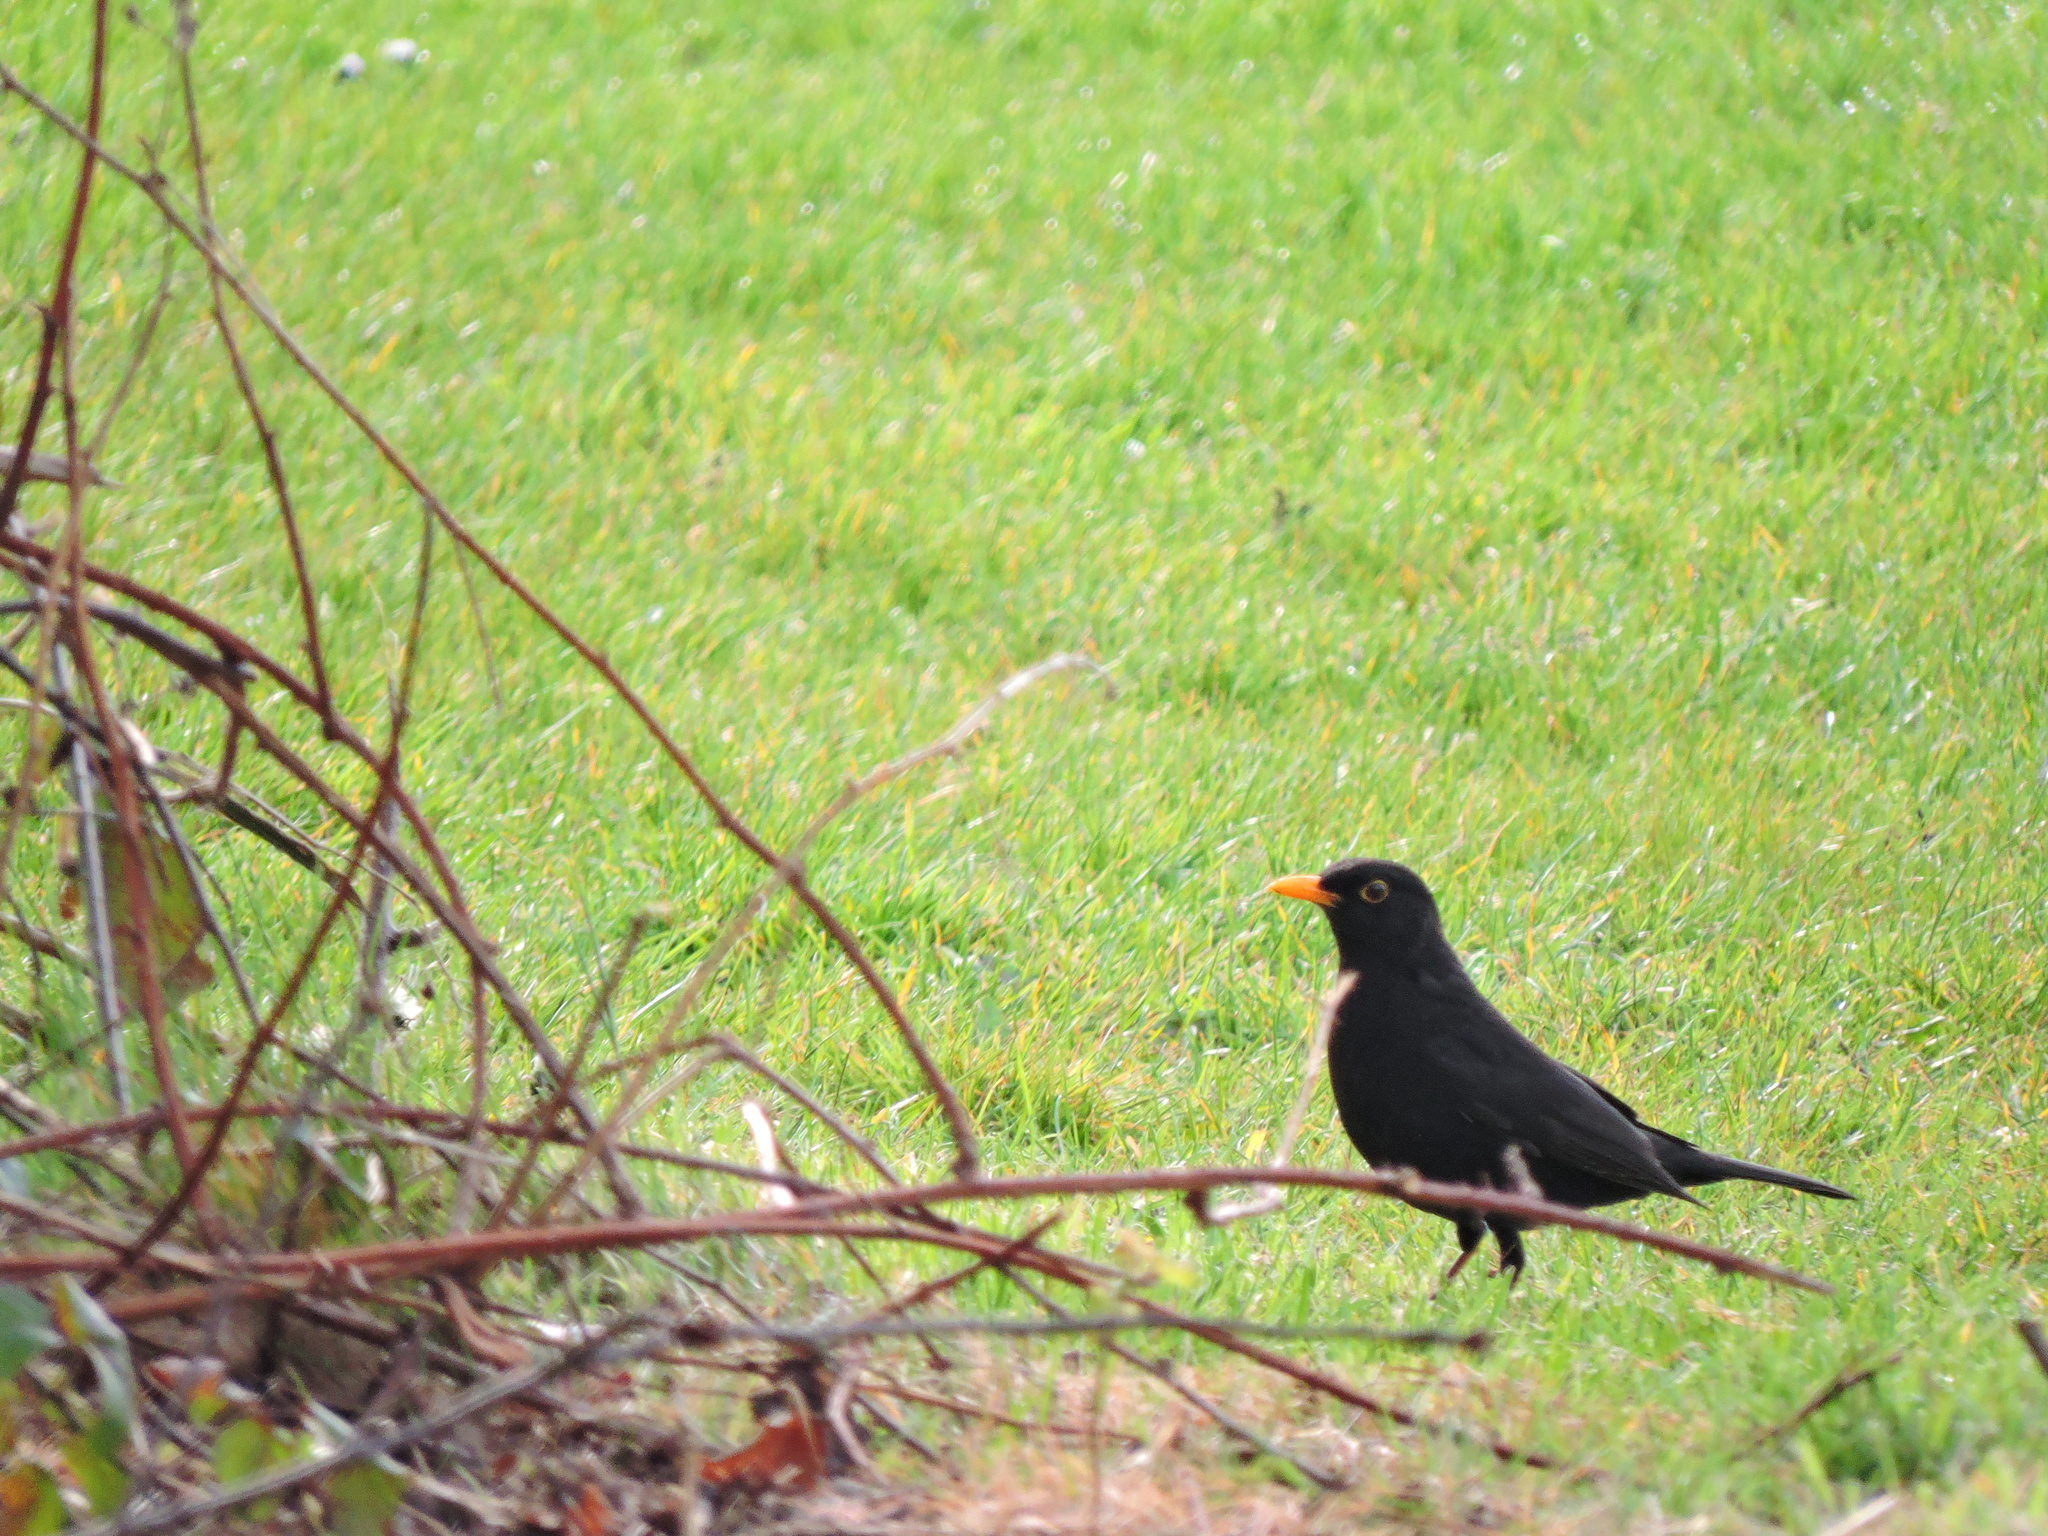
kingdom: Animalia
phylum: Chordata
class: Aves
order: Passeriformes
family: Turdidae
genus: Turdus
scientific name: Turdus merula
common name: Common blackbird
